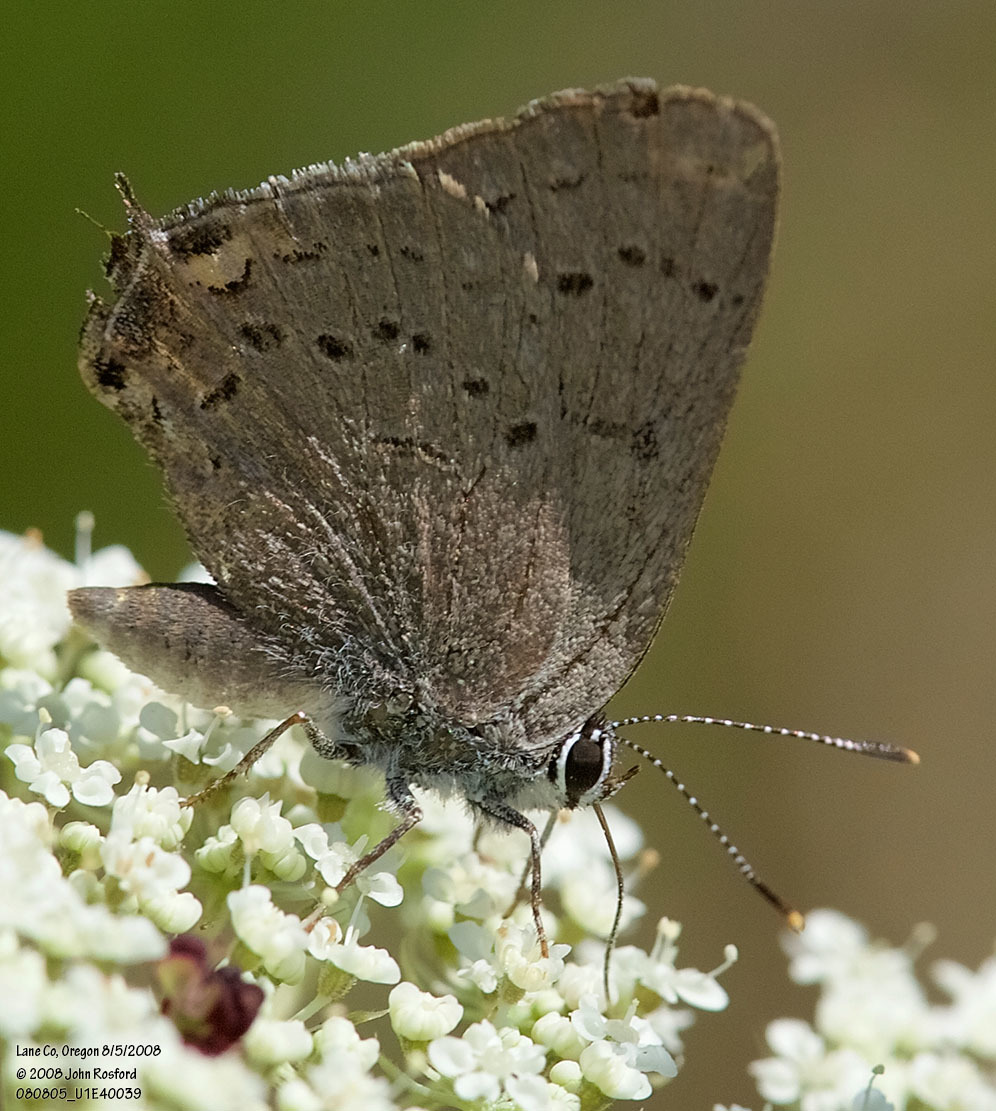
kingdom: Animalia
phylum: Arthropoda
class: Insecta
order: Lepidoptera
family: Lycaenidae
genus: Strymon
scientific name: Strymon sylvinus
